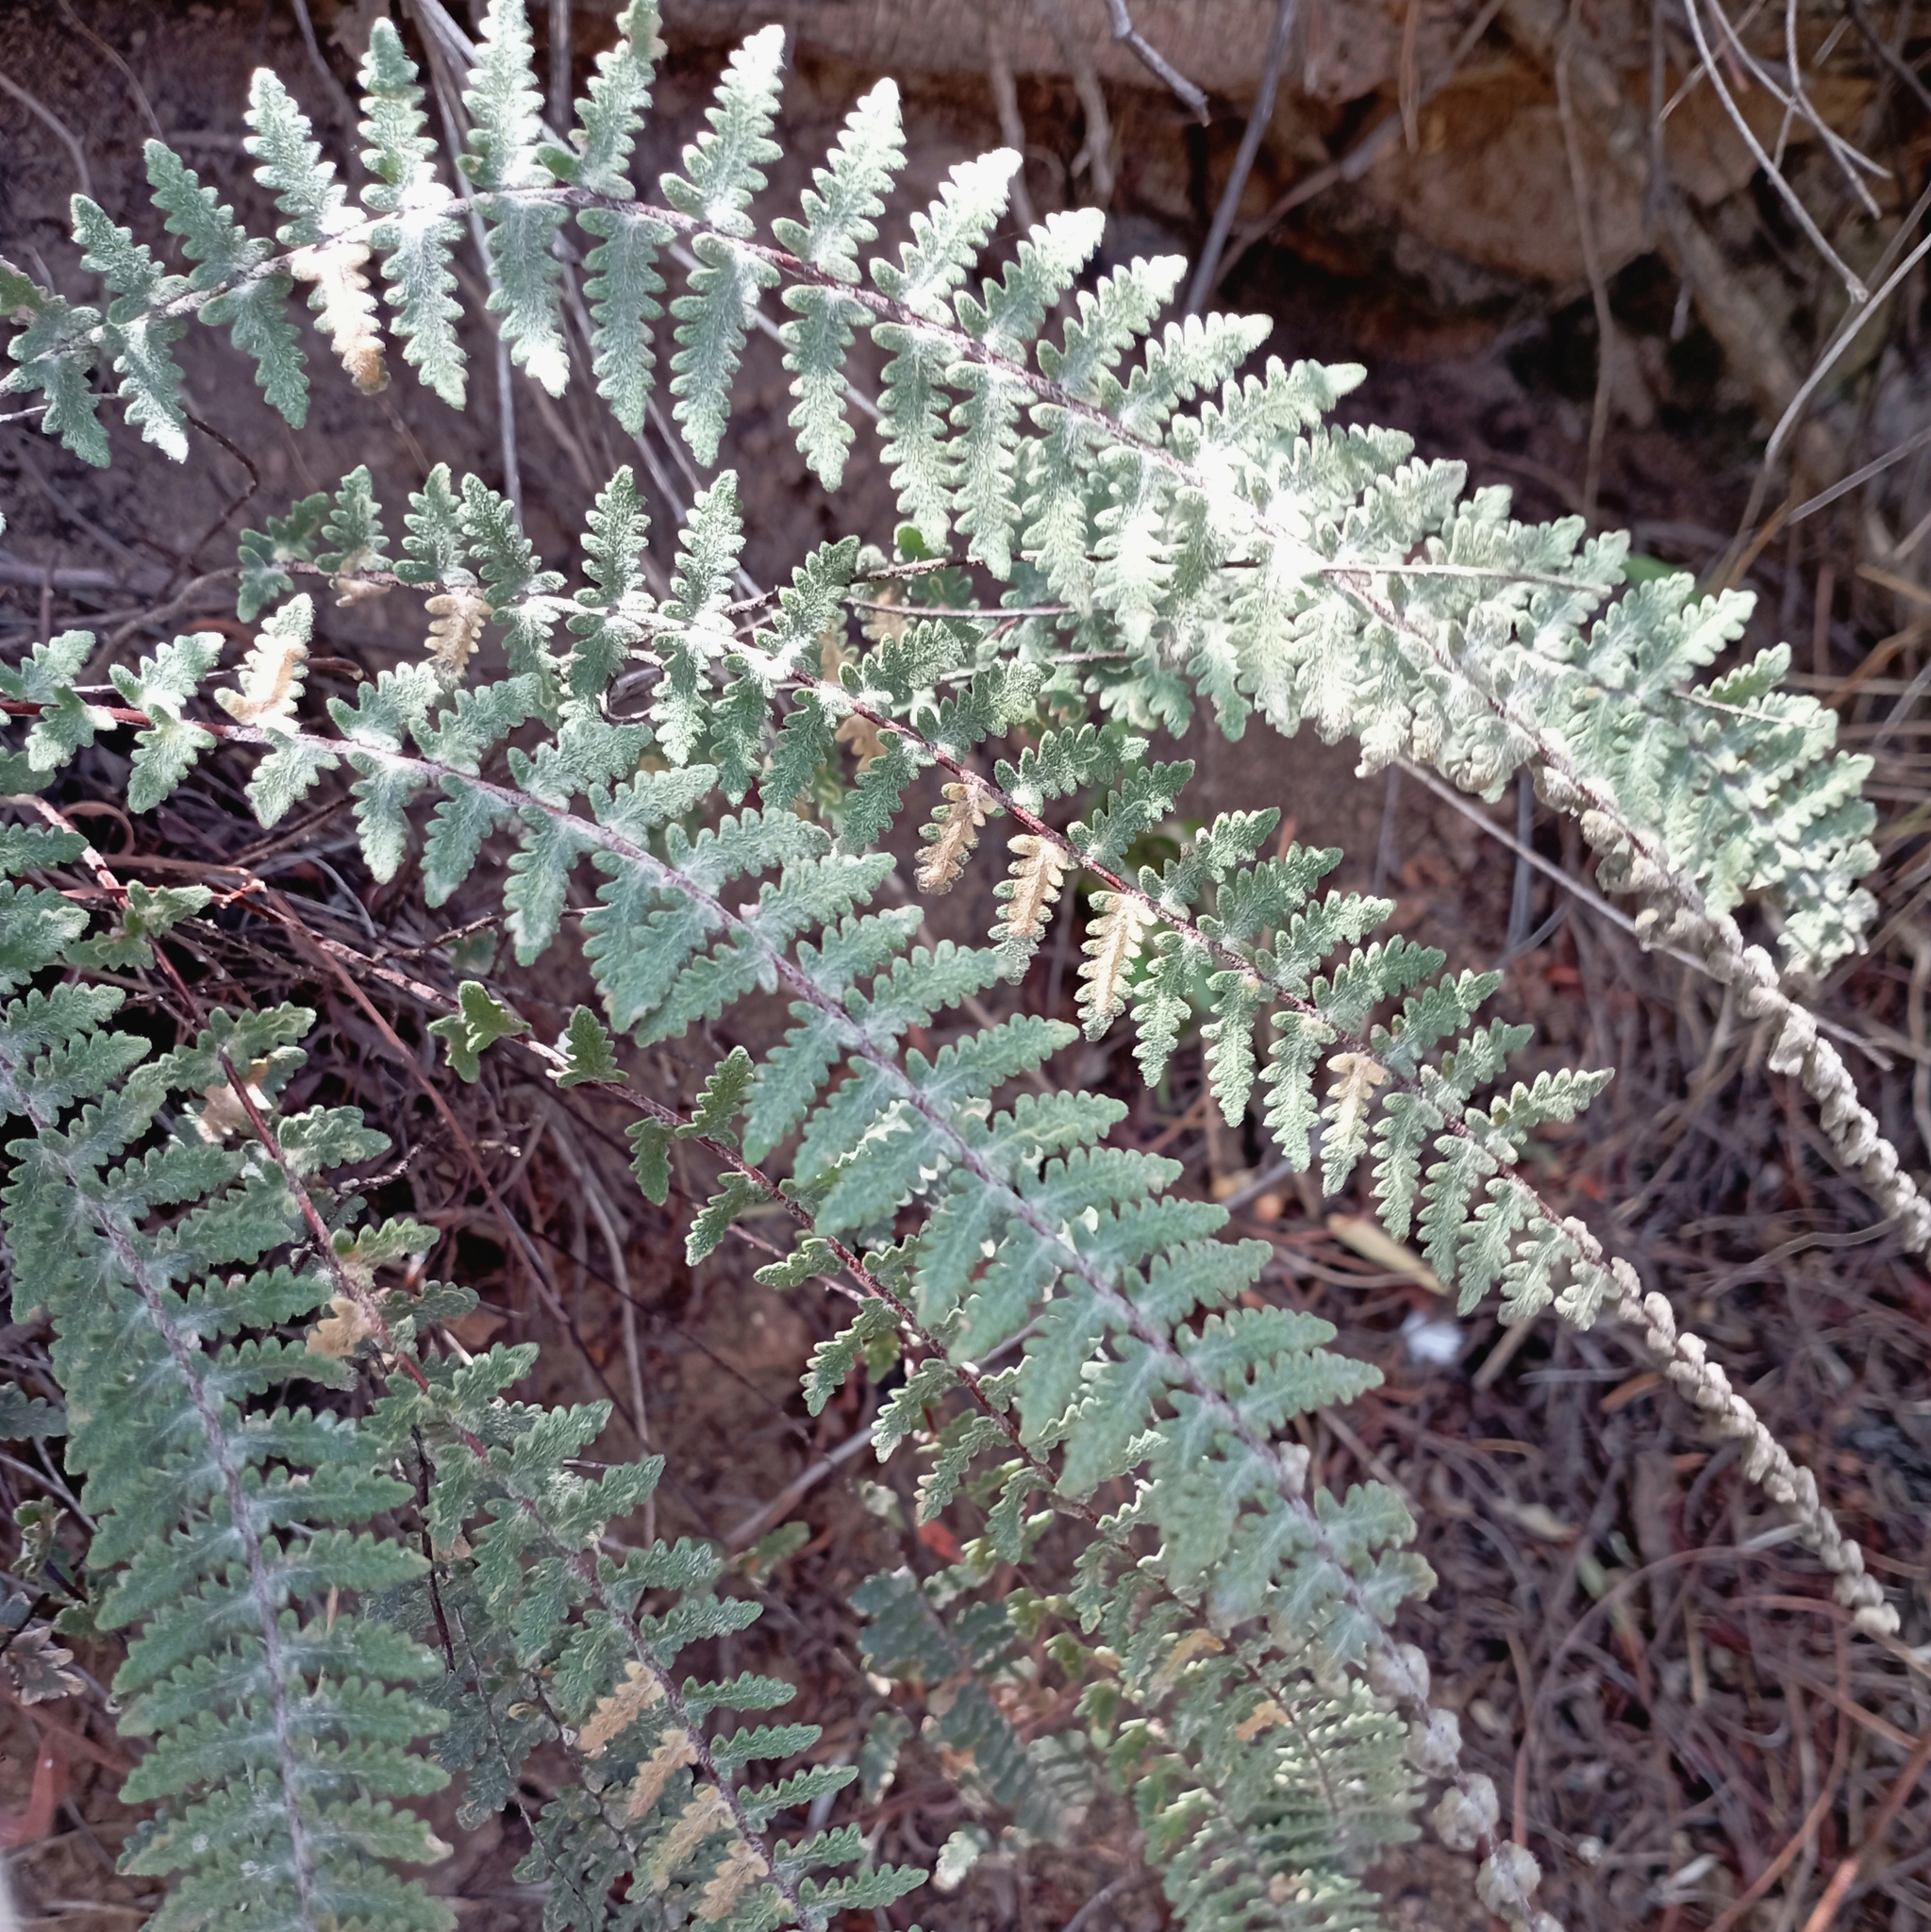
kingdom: Plantae
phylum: Tracheophyta
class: Polypodiopsida
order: Polypodiales
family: Pteridaceae
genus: Myriopteris
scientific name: Myriopteris aurea
